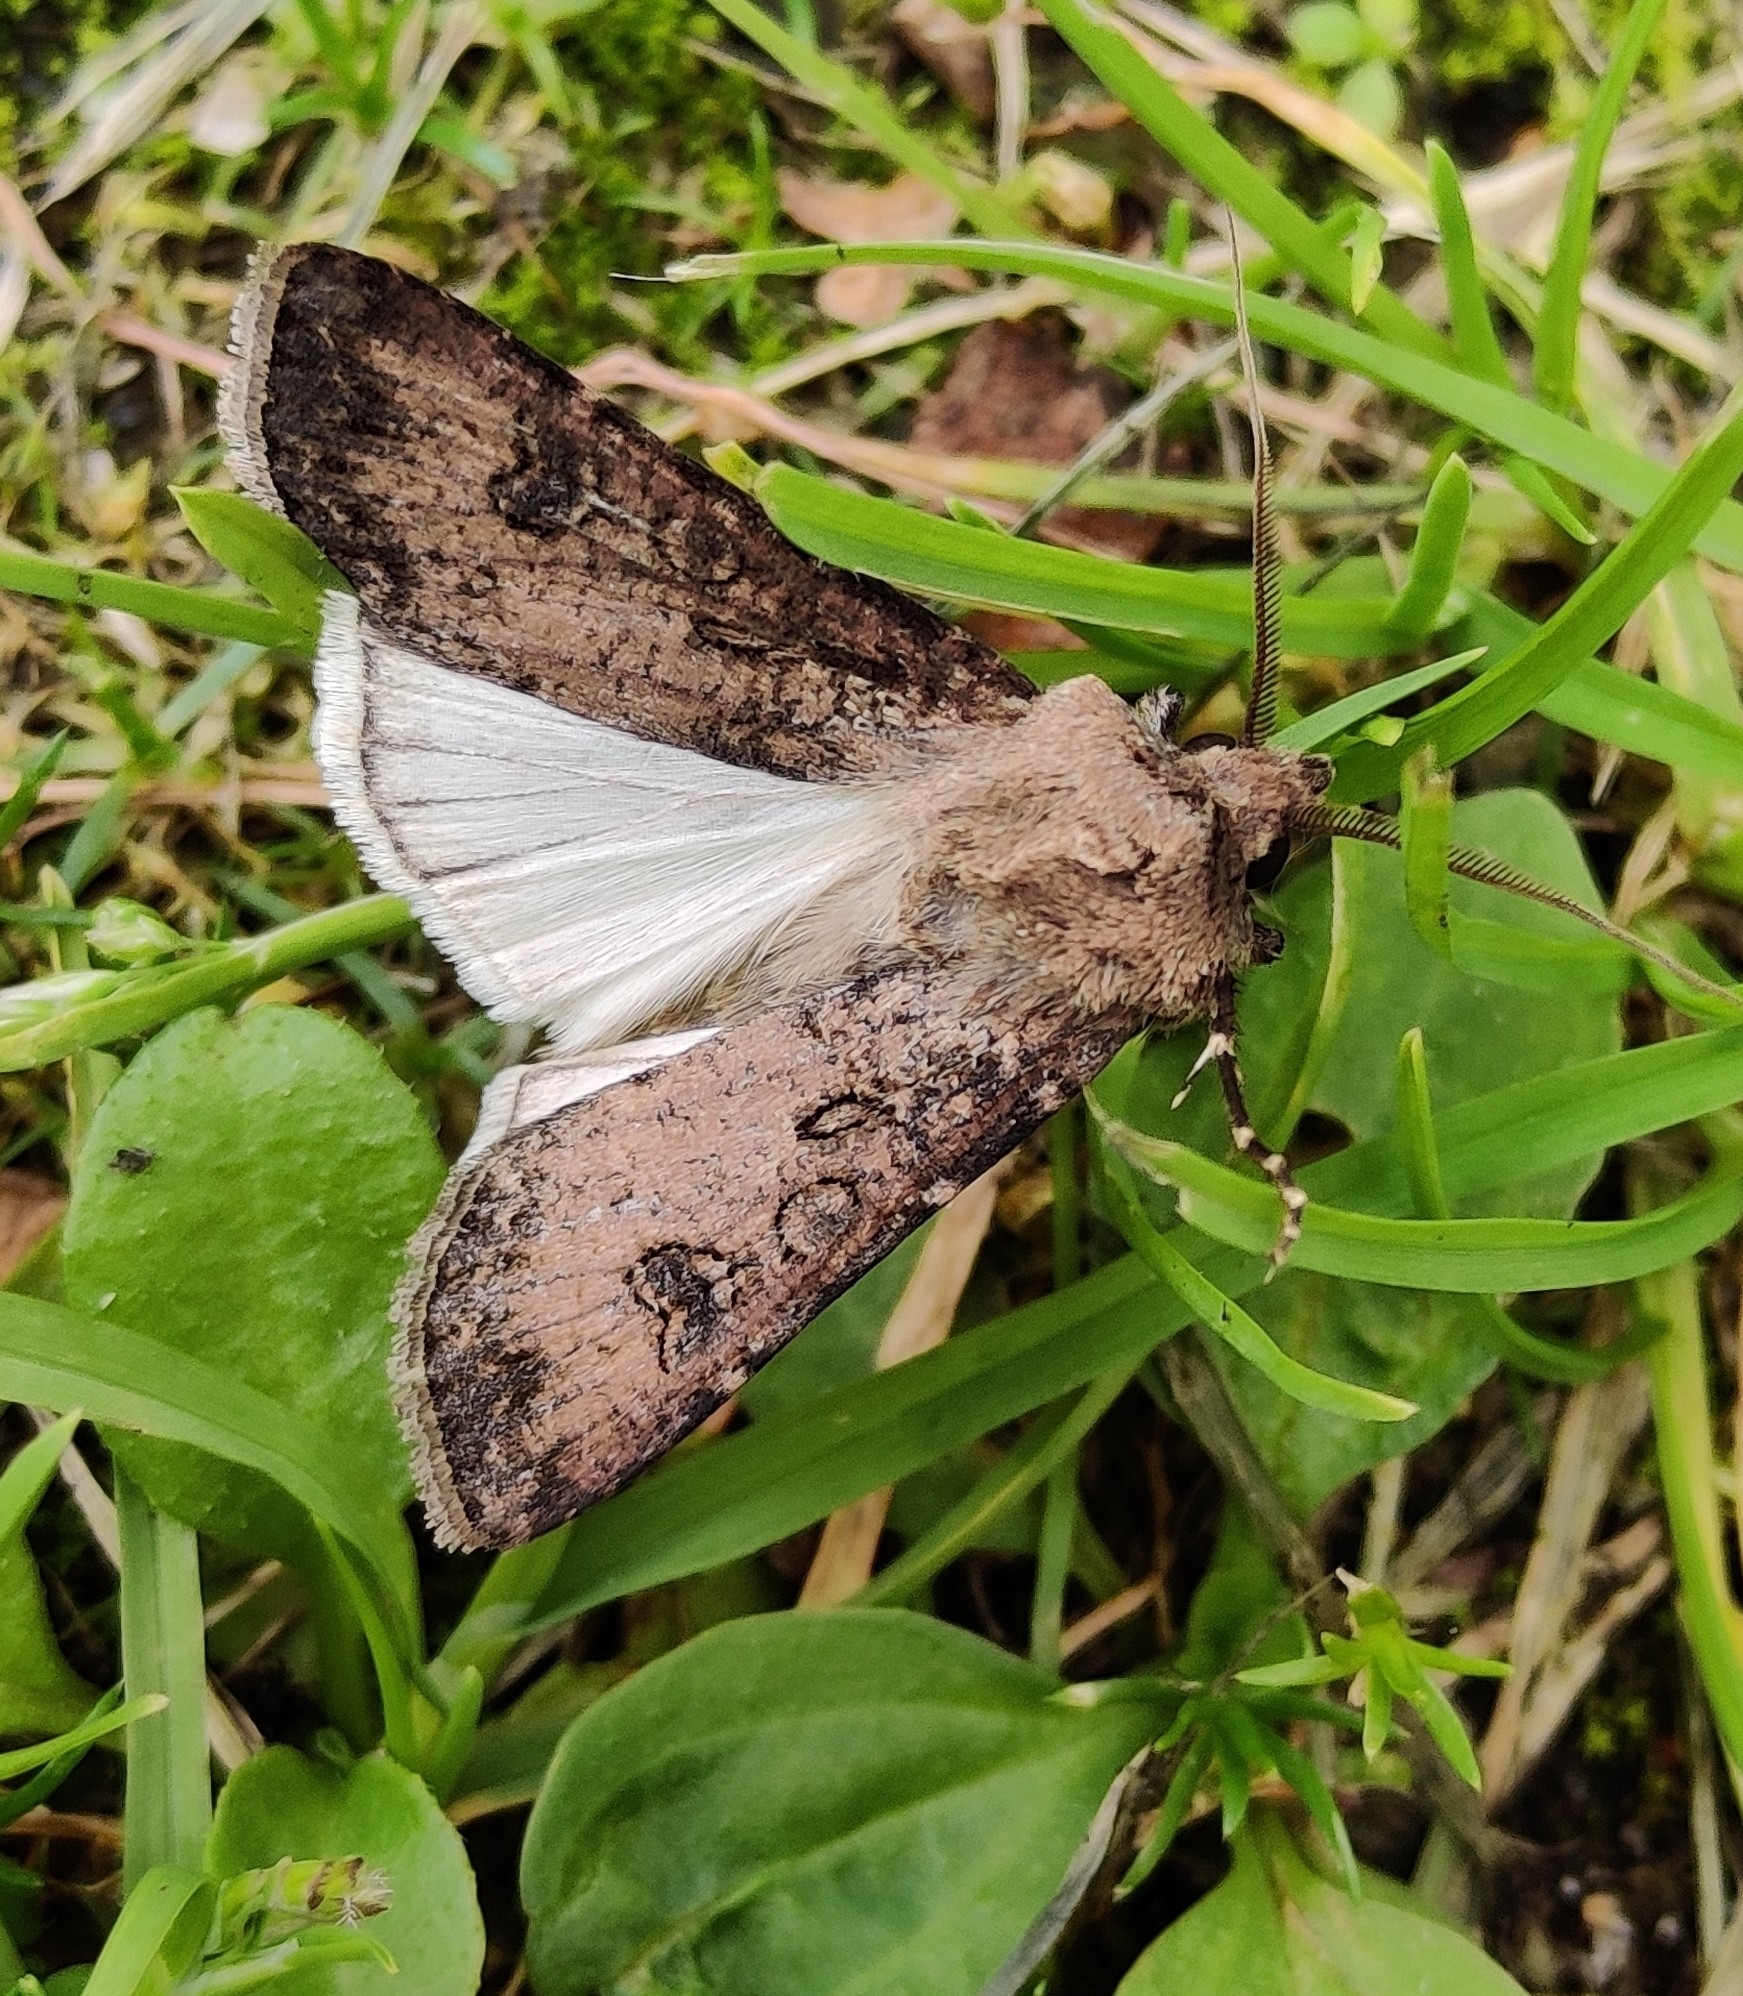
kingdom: Animalia
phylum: Arthropoda
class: Insecta
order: Lepidoptera
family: Noctuidae
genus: Agrotis
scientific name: Agrotis segetum
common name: Turnip moth
